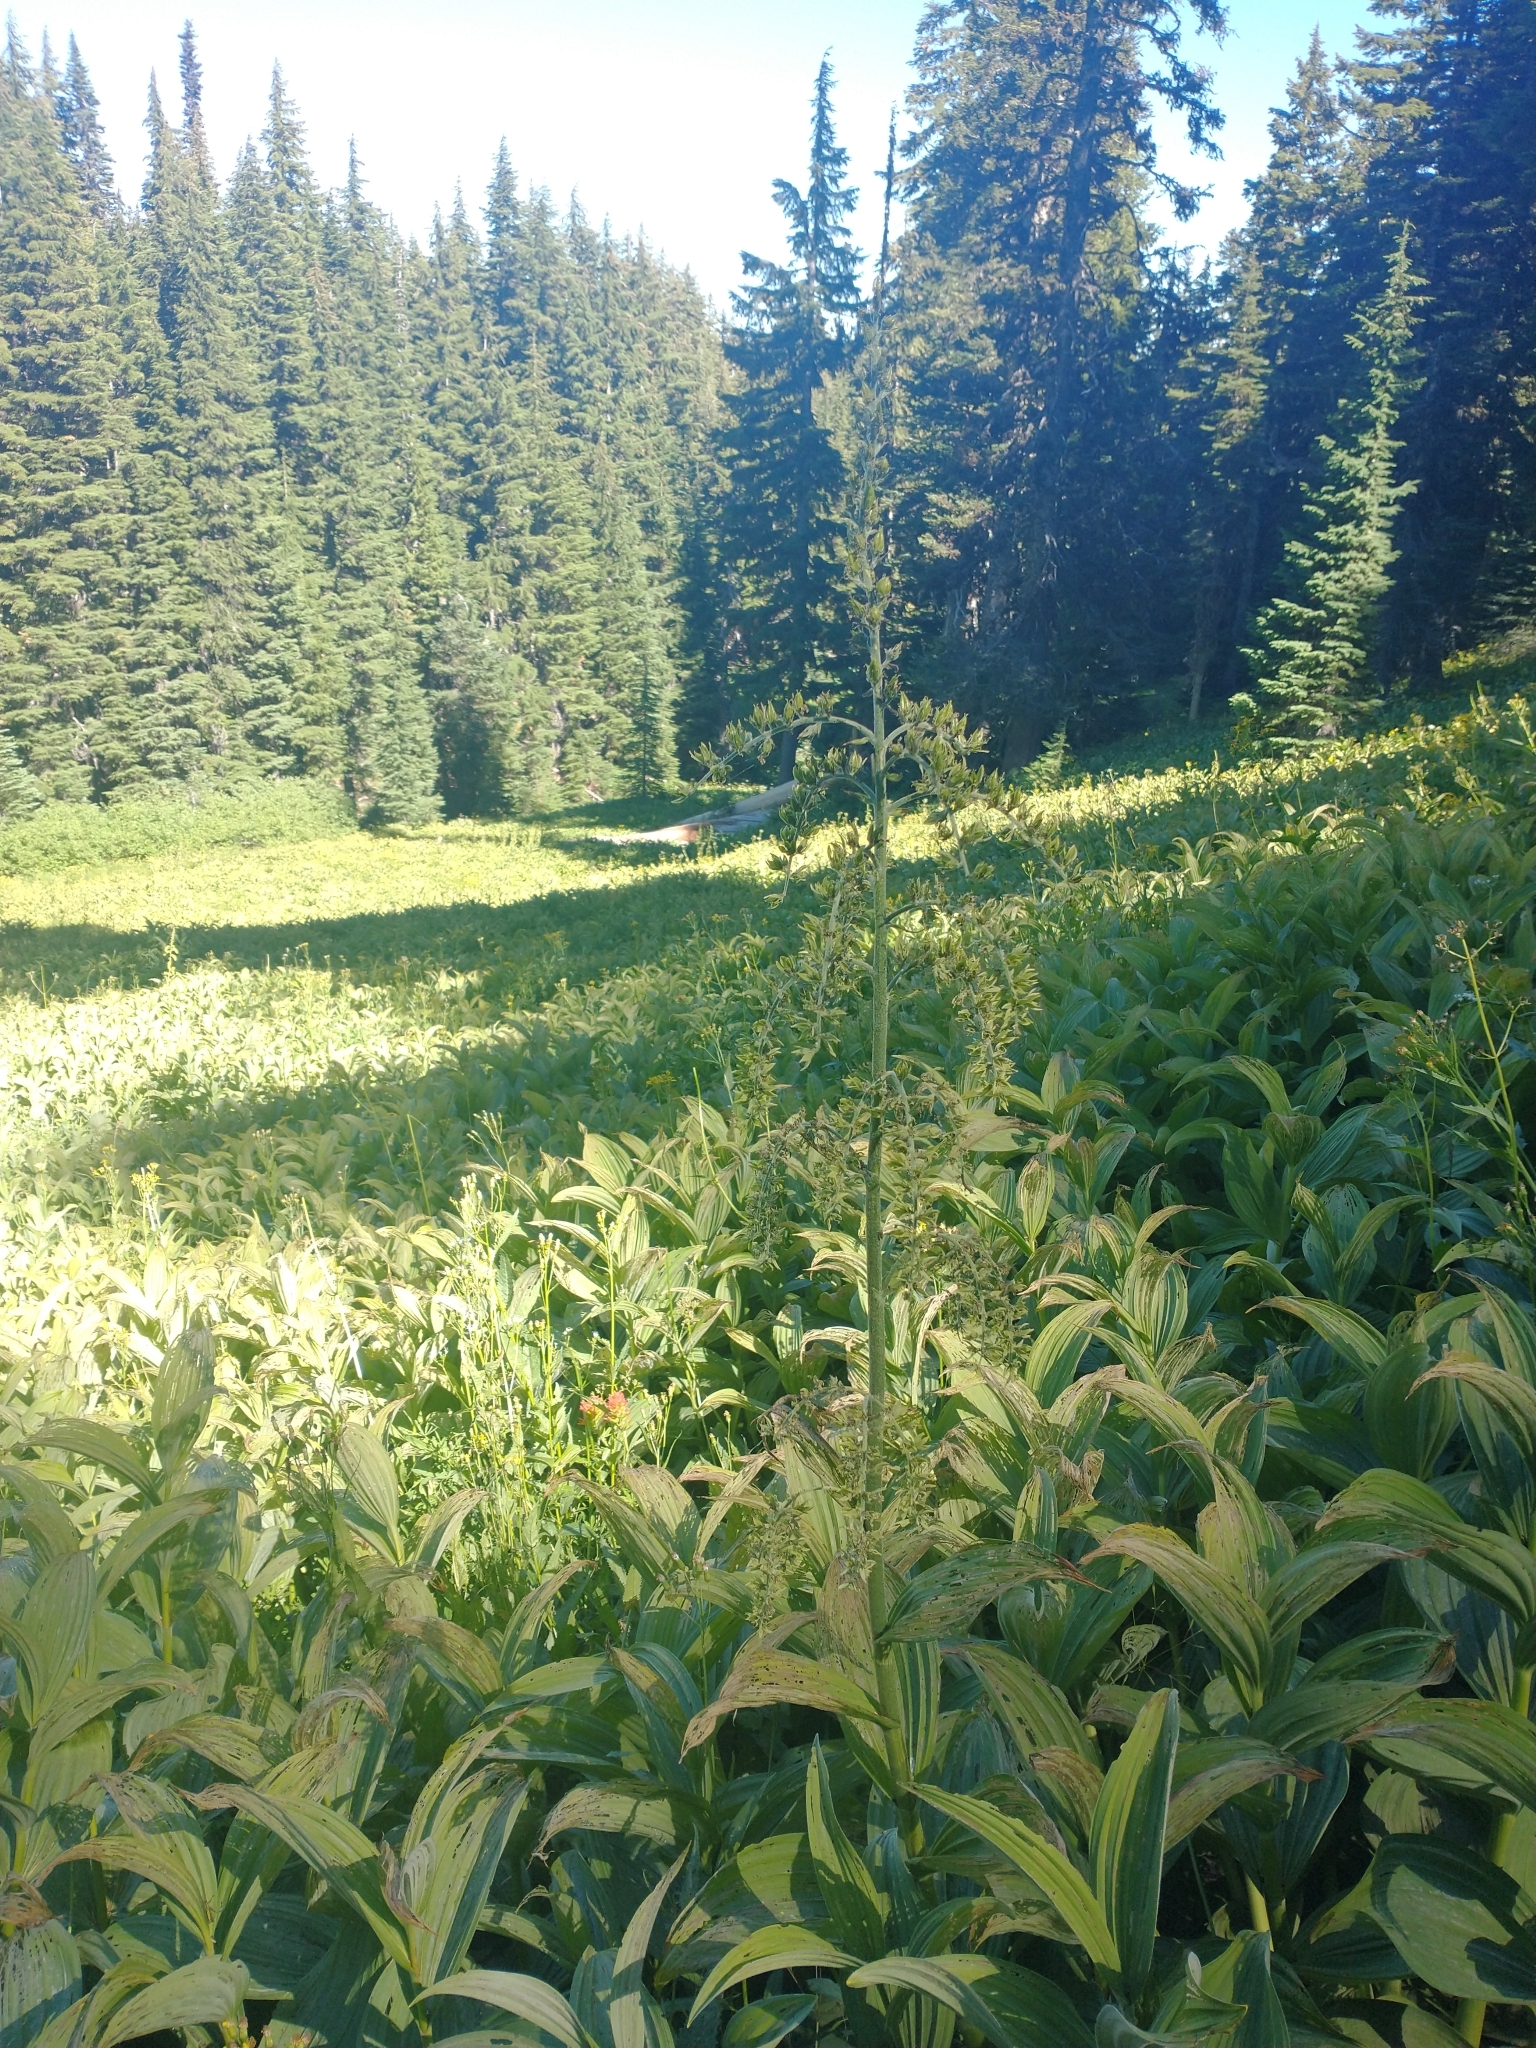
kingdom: Plantae
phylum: Tracheophyta
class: Liliopsida
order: Liliales
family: Melanthiaceae
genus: Veratrum
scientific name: Veratrum viride
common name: American false hellebore
